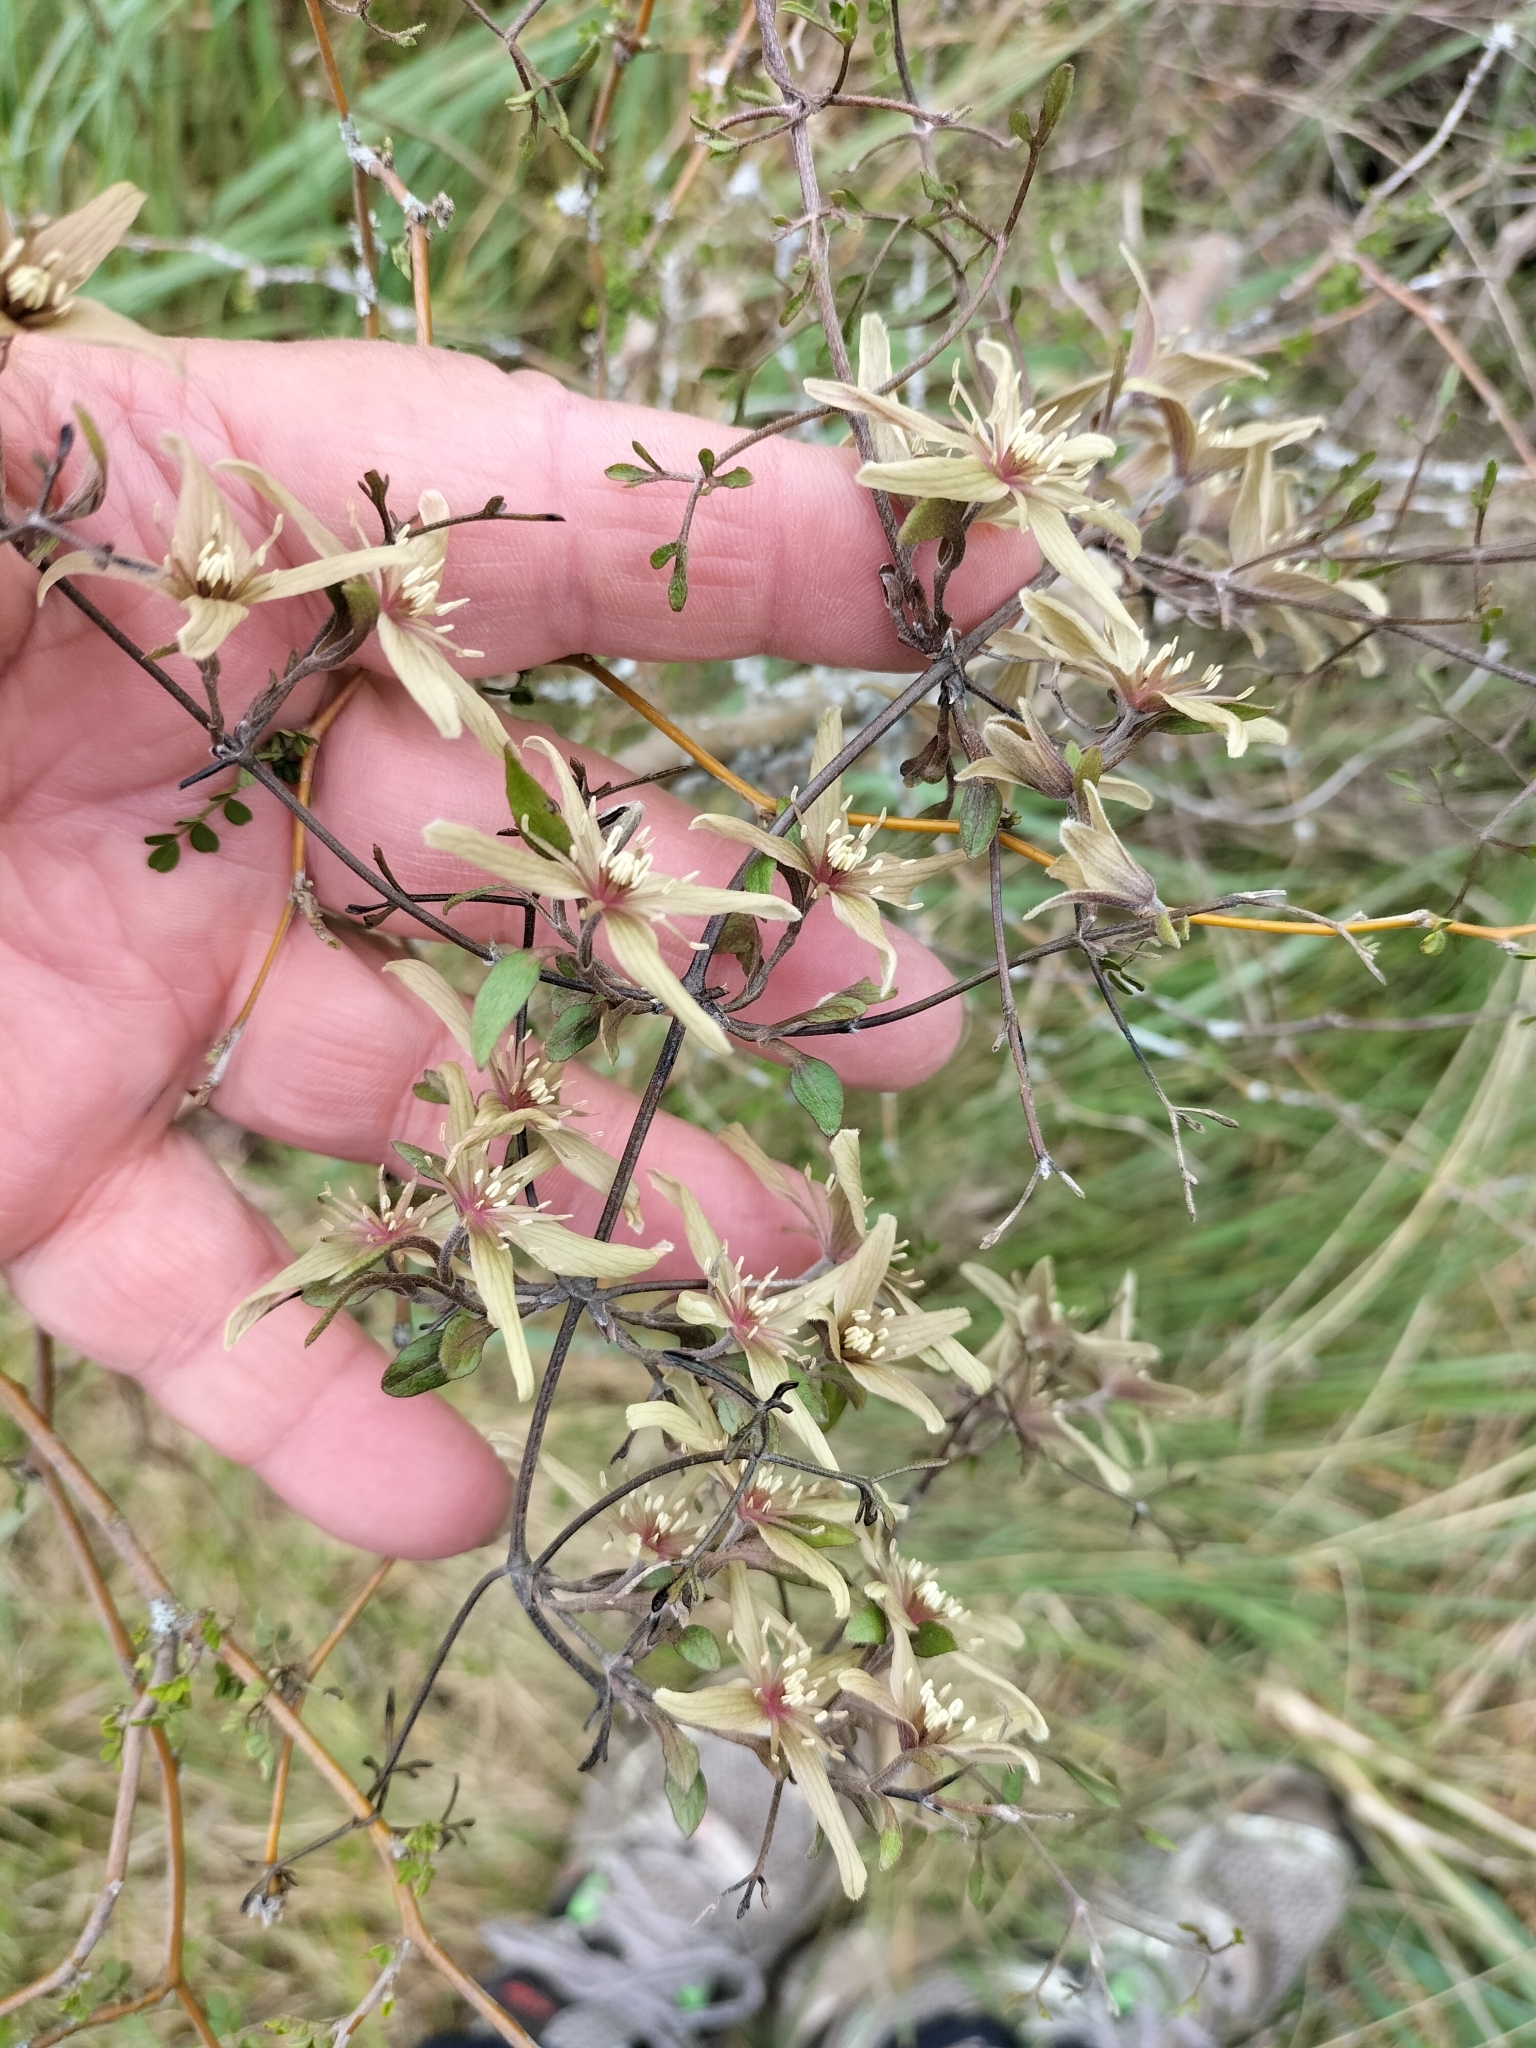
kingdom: Plantae
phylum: Tracheophyta
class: Magnoliopsida
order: Ranunculales
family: Ranunculaceae
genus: Clematis
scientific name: Clematis quadribracteolata
